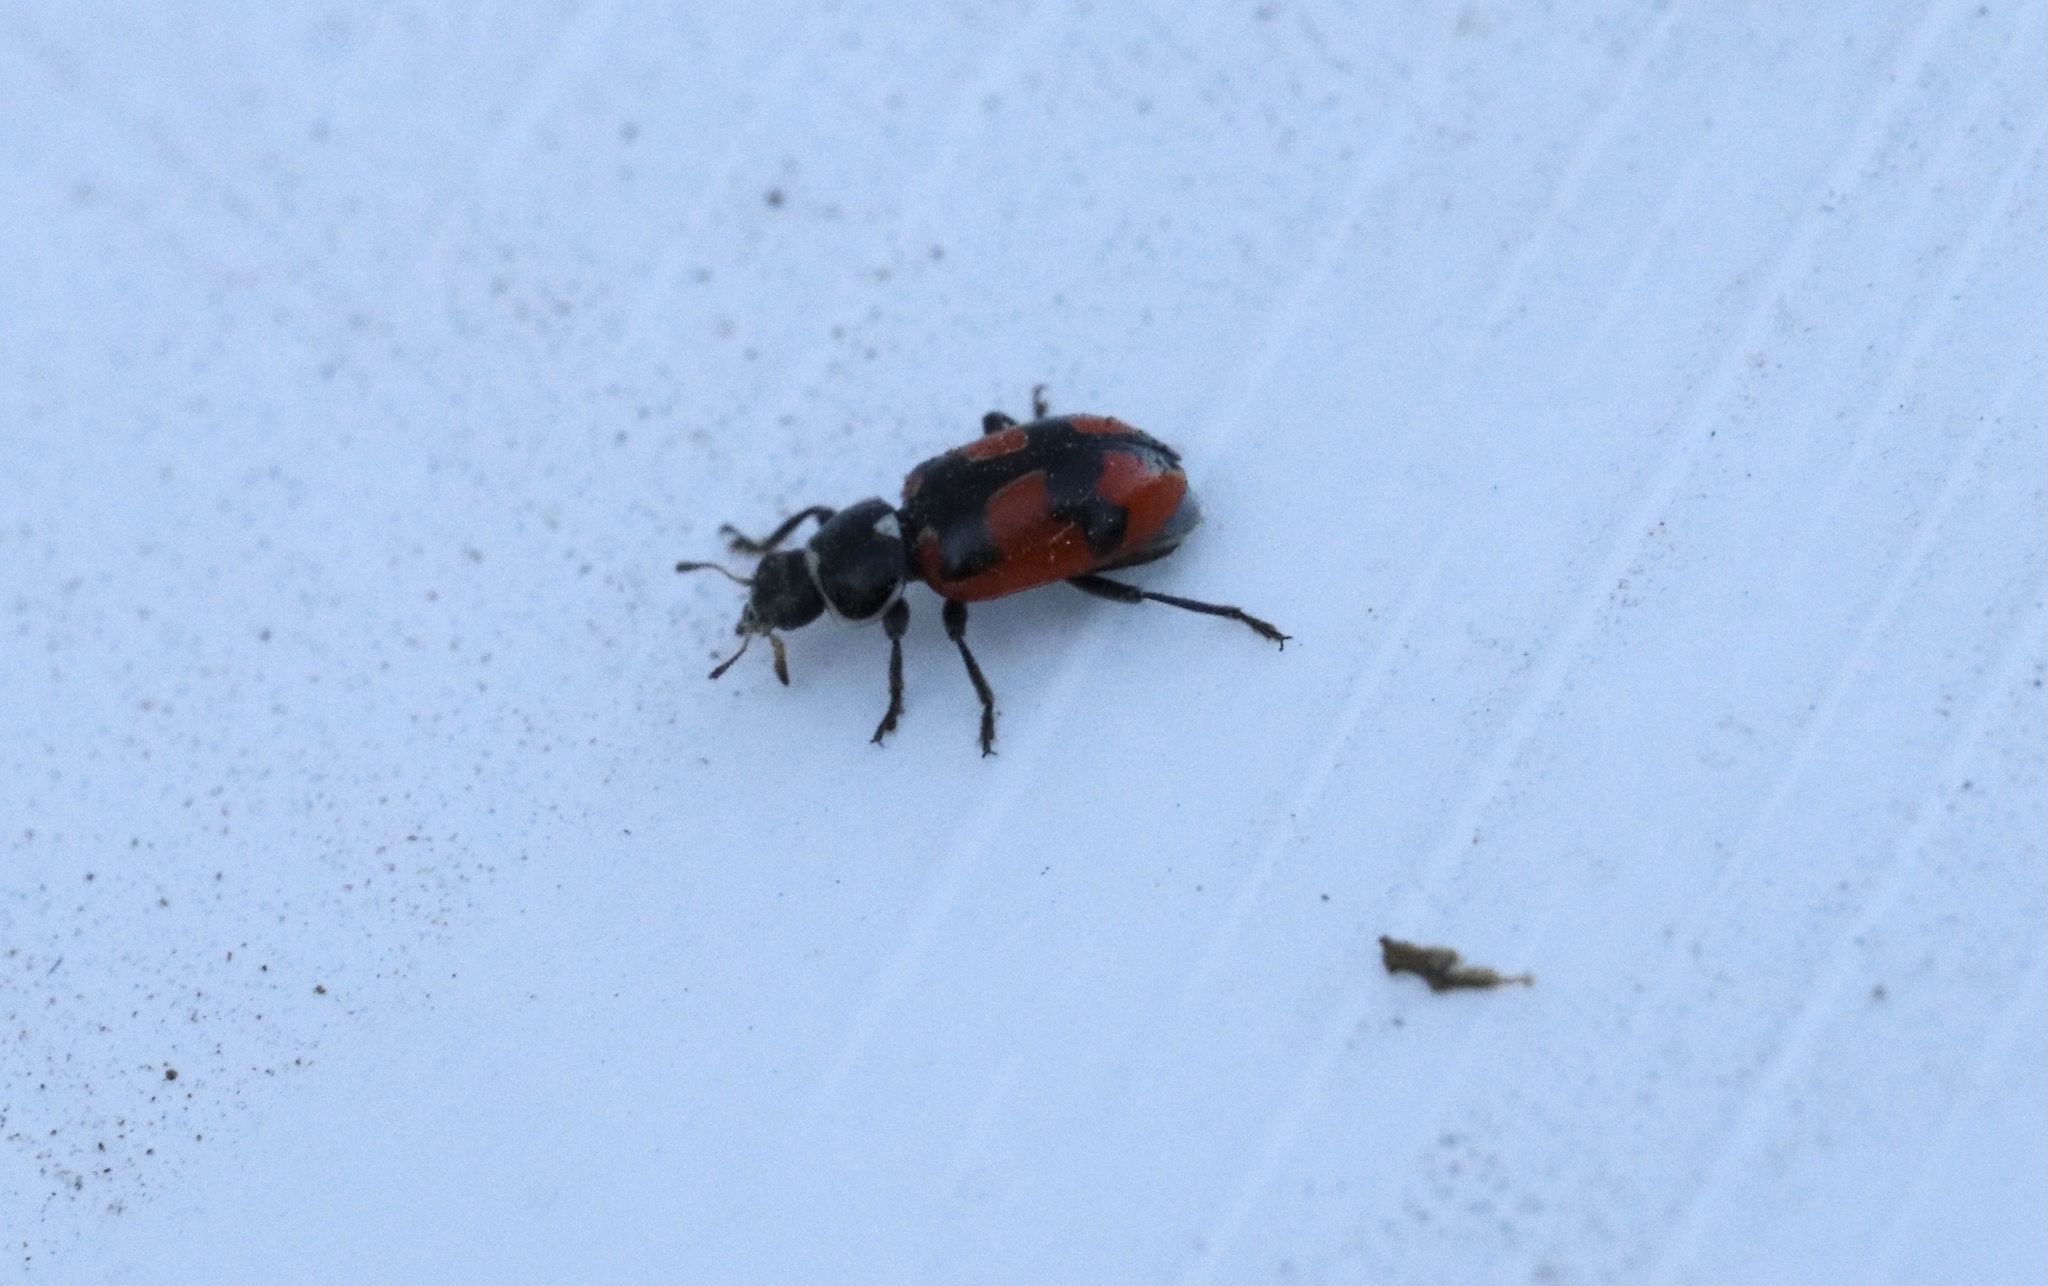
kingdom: Animalia
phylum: Arthropoda
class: Insecta
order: Coleoptera
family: Coccinellidae
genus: Eriopis
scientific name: Eriopis eschscholtzii
